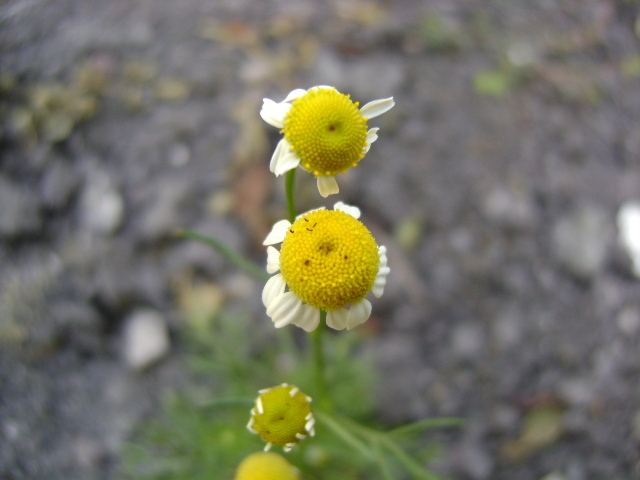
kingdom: Plantae
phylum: Tracheophyta
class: Magnoliopsida
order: Asterales
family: Asteraceae
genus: Matricaria
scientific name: Matricaria chamomilla
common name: Scented mayweed
